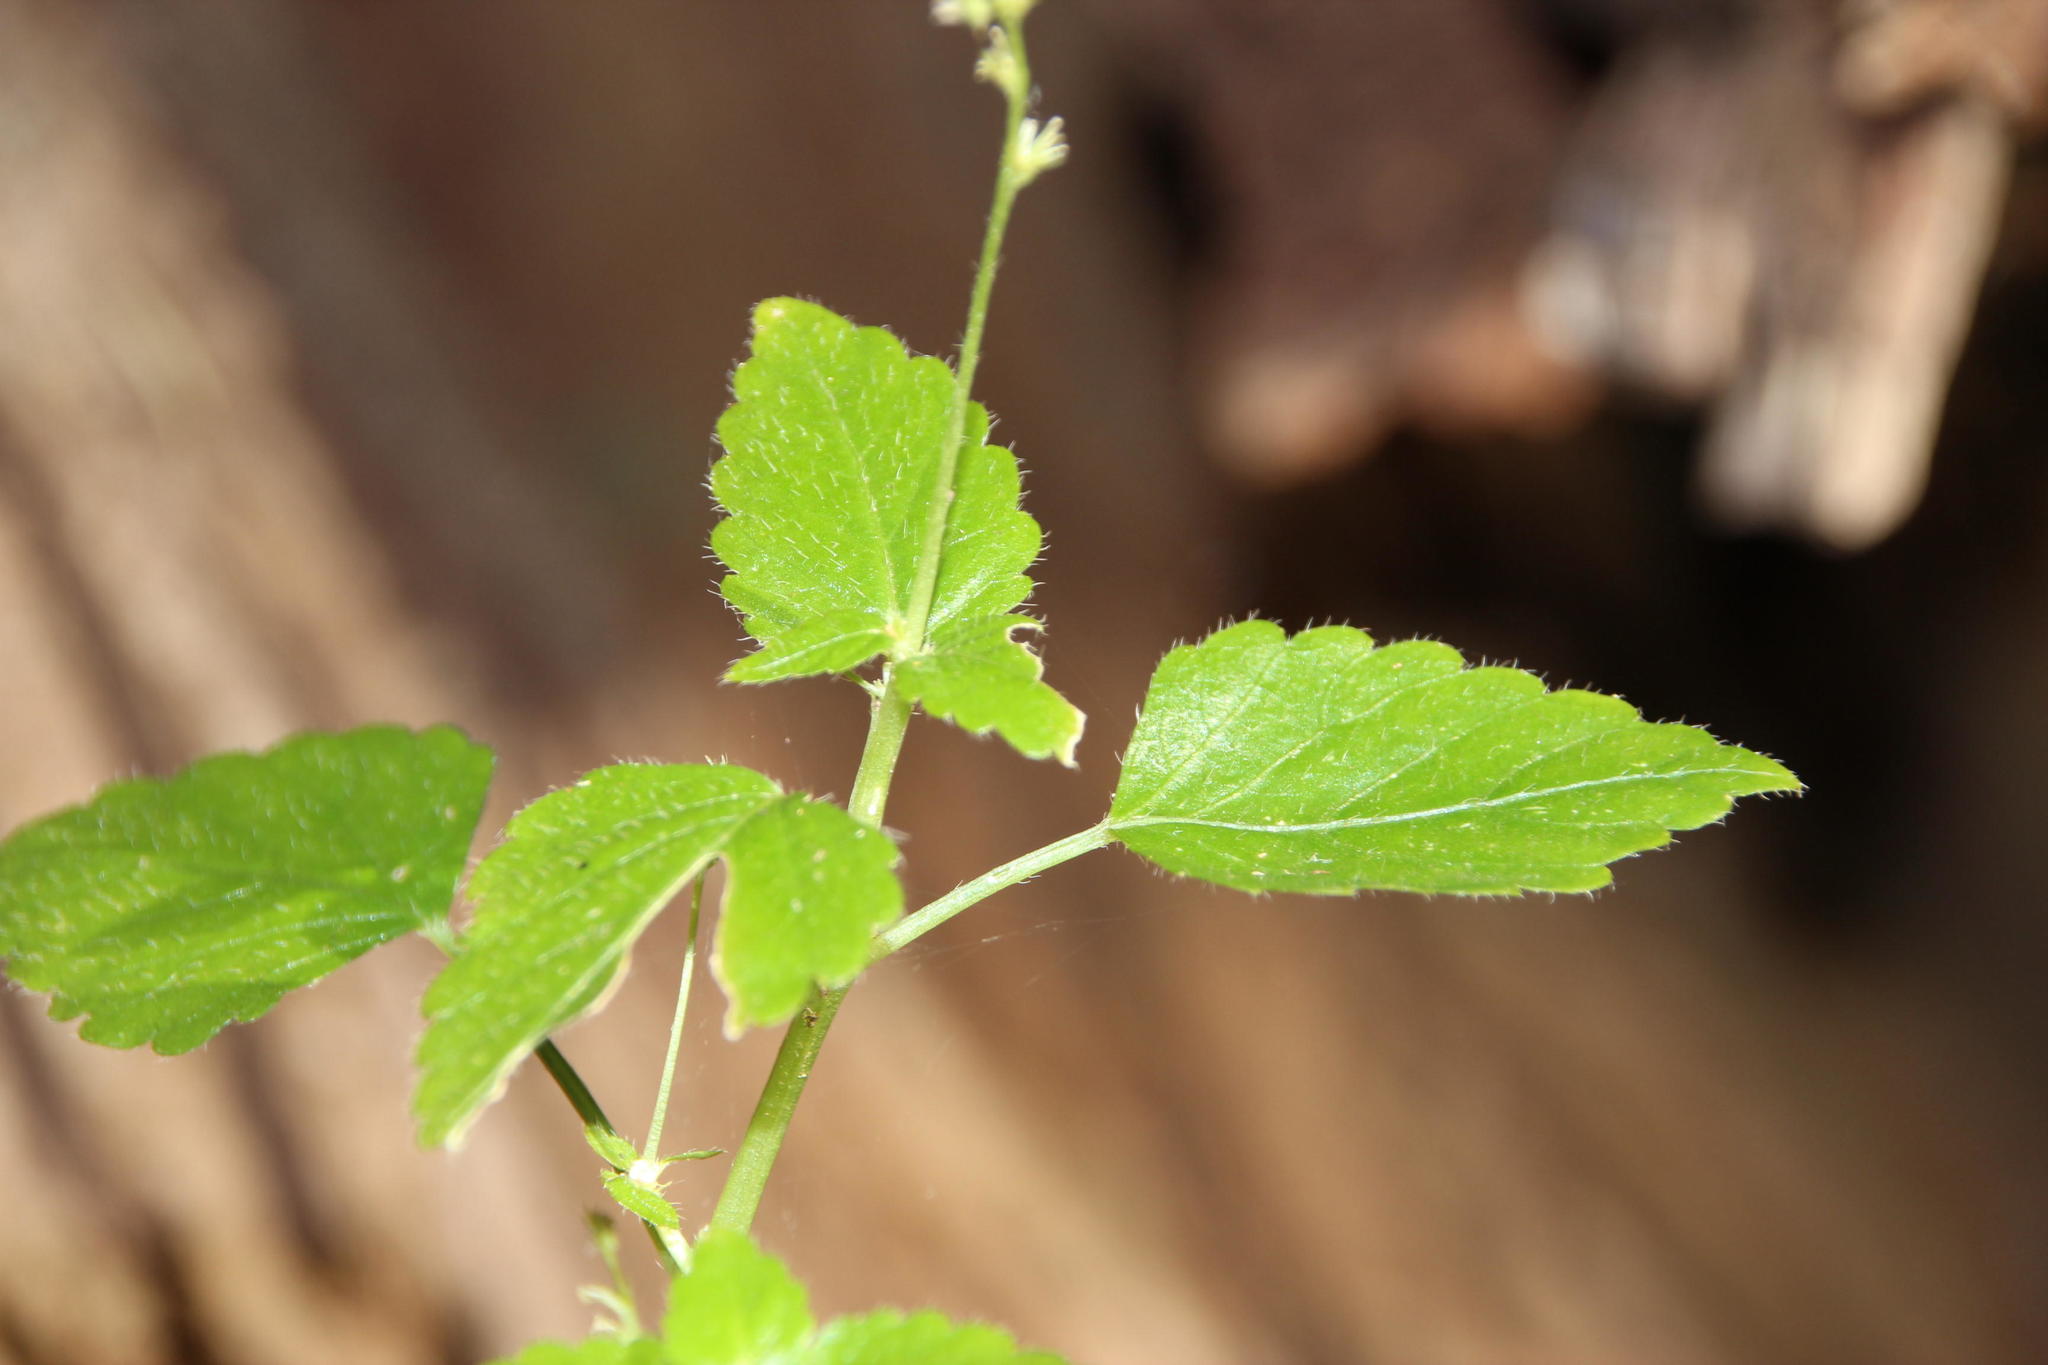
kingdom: Plantae
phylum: Tracheophyta
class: Magnoliopsida
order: Malpighiales
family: Euphorbiaceae
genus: Leidesia
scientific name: Leidesia procumbens
